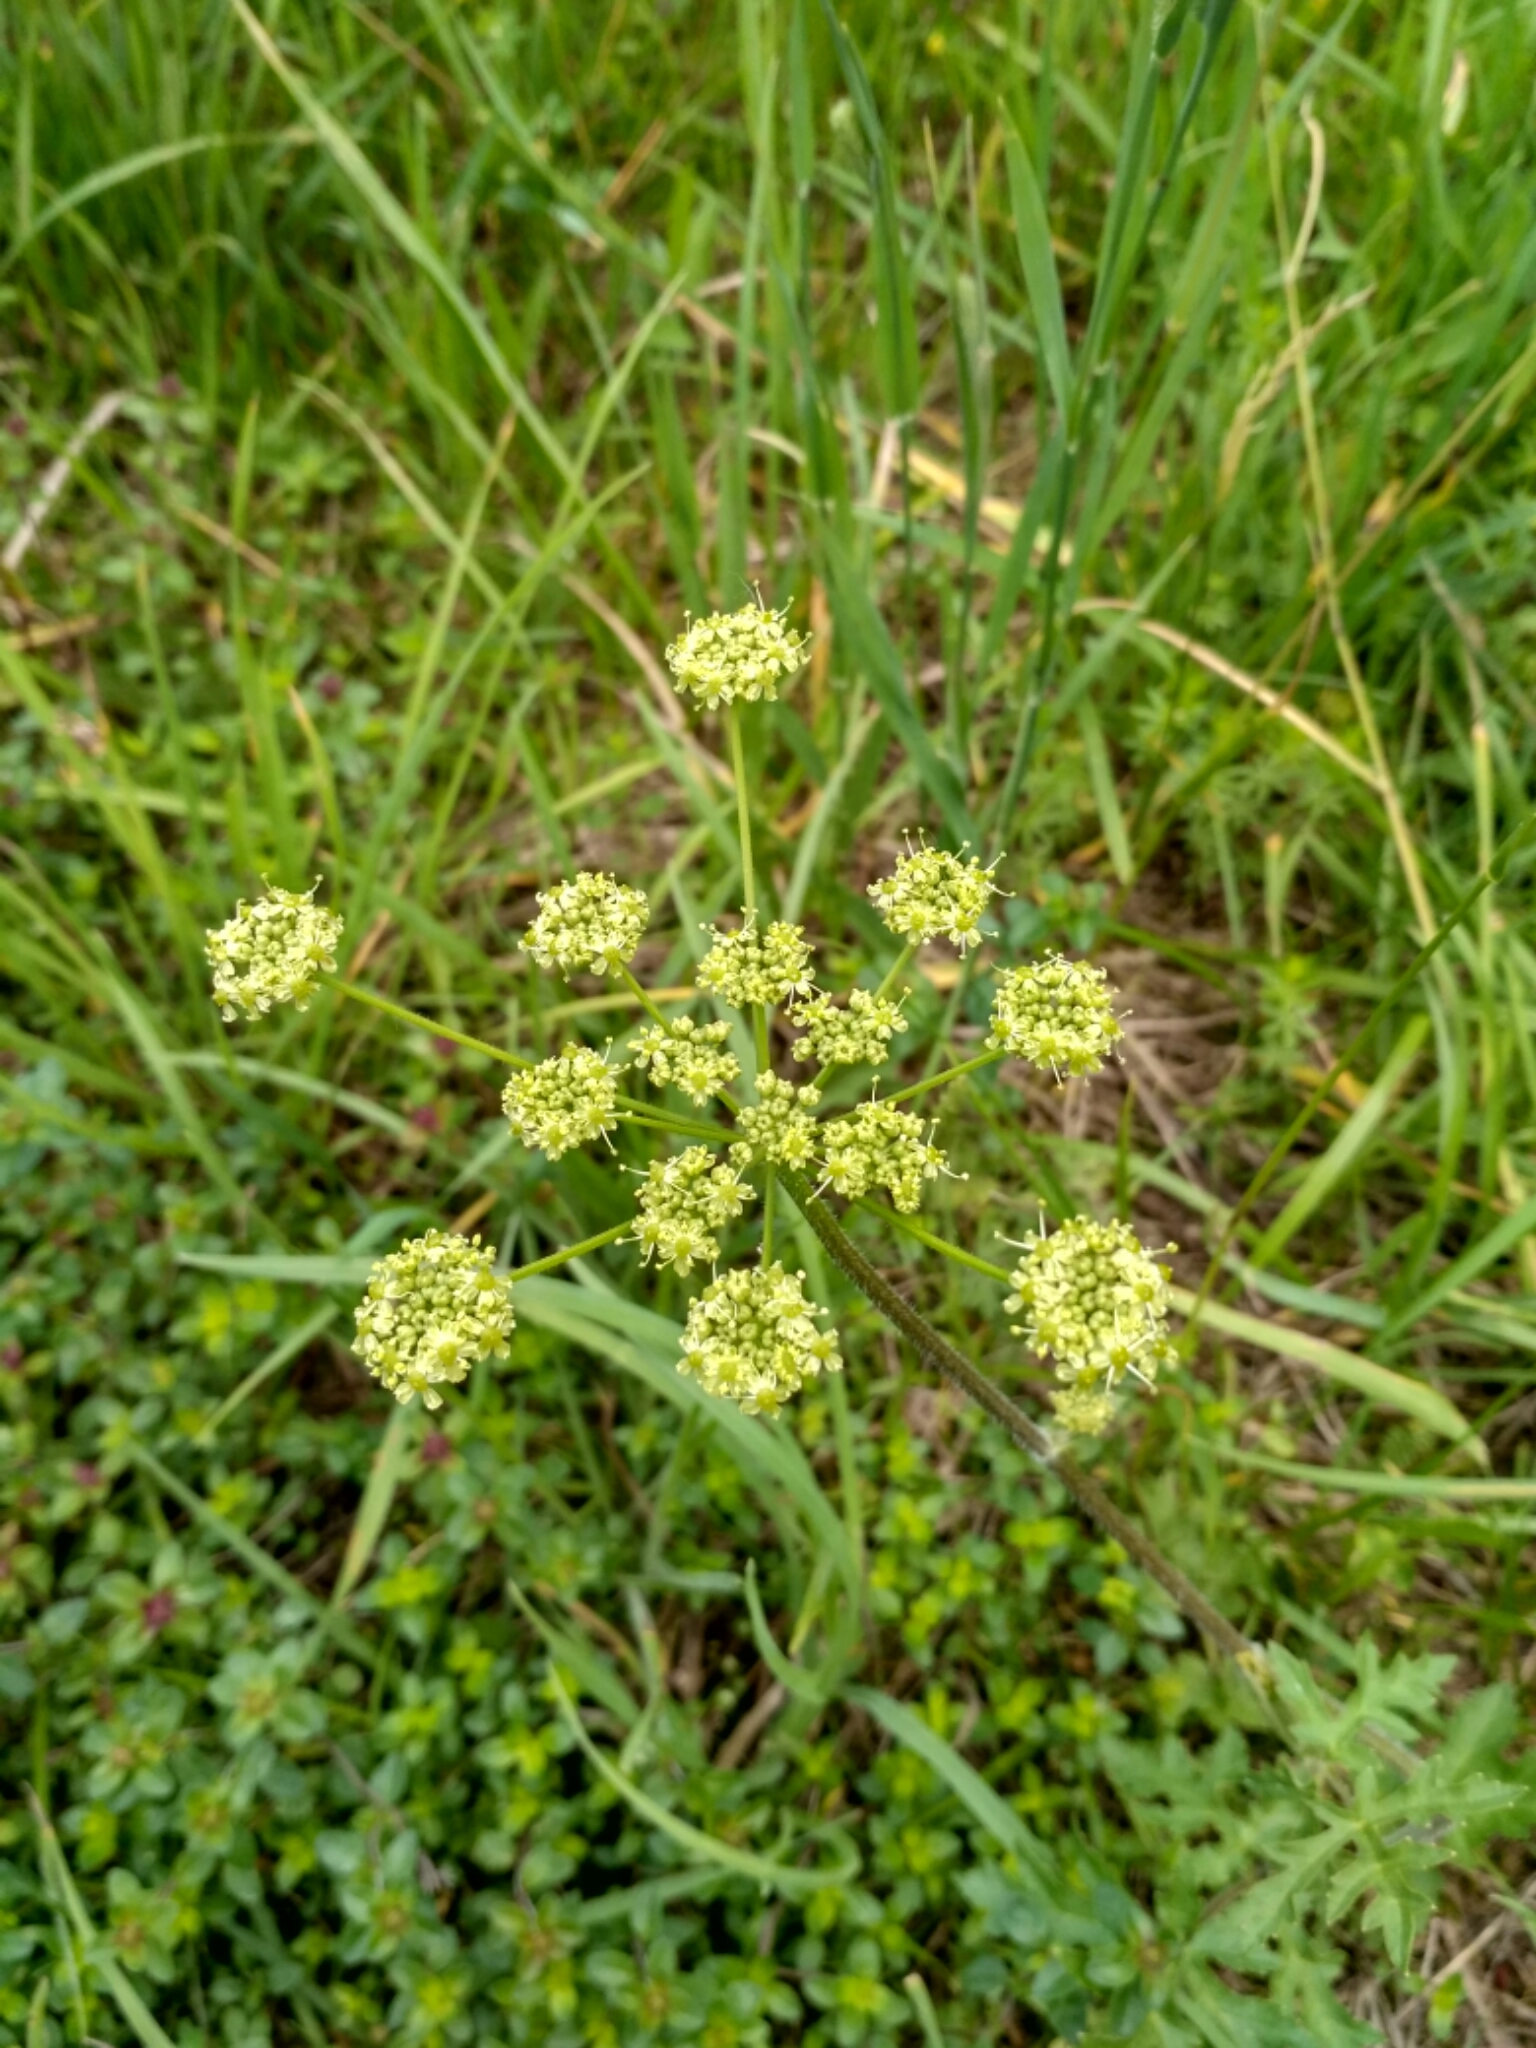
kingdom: Plantae
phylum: Tracheophyta
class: Magnoliopsida
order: Apiales
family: Apiaceae
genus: Heracleum
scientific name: Heracleum sphondylium
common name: Hogweed
